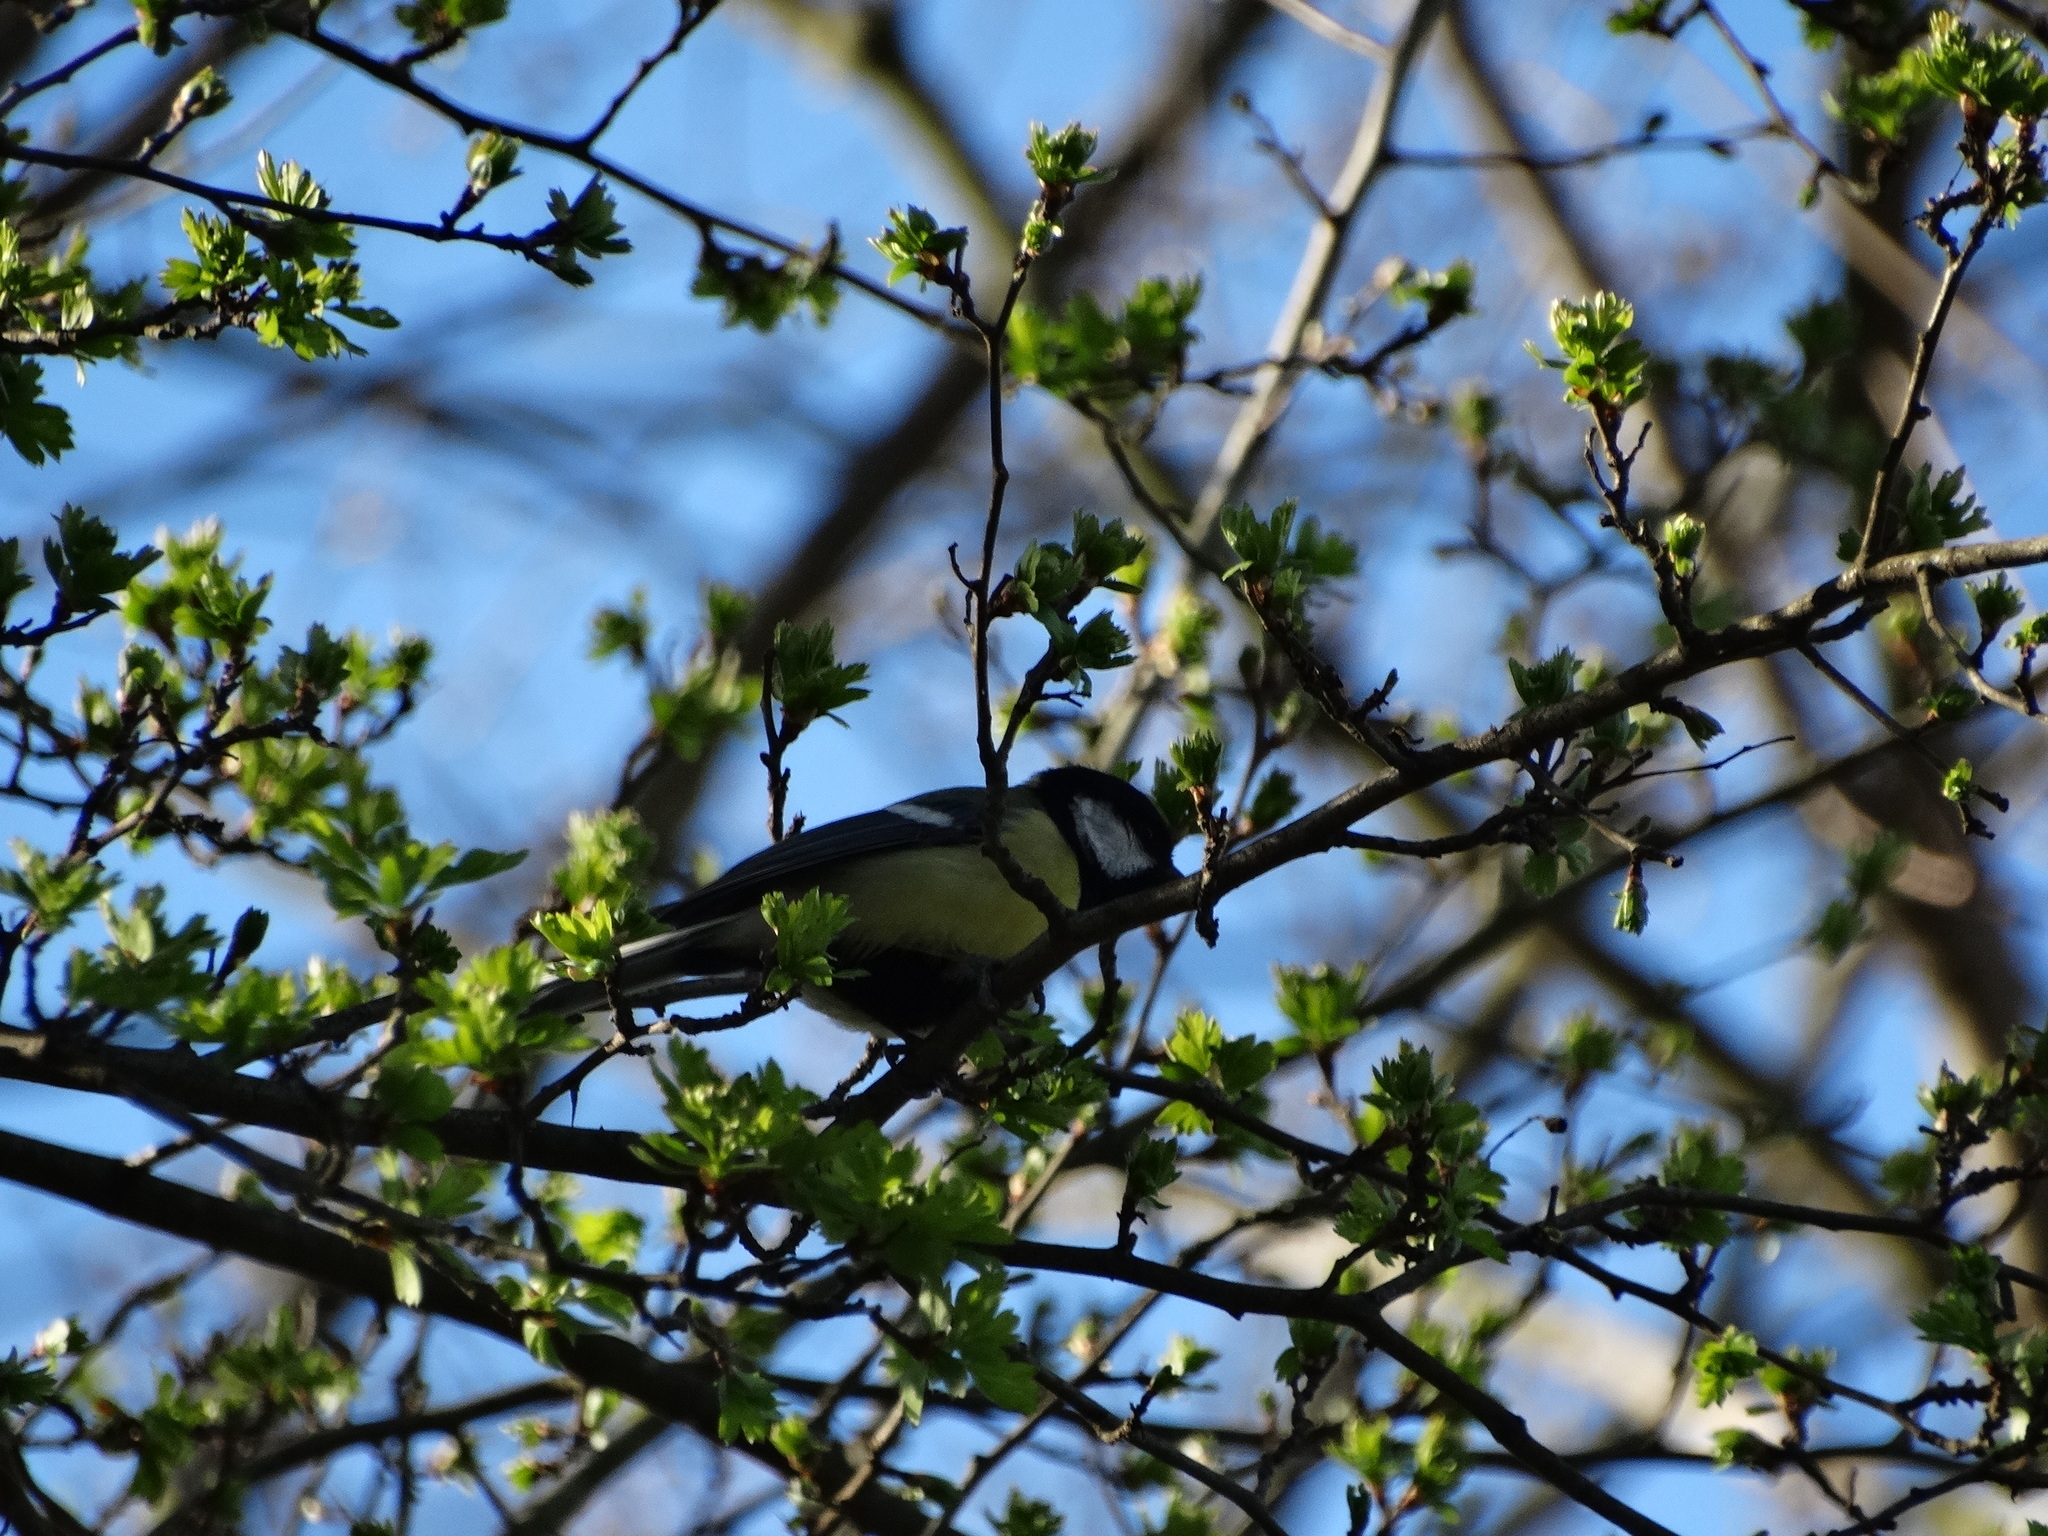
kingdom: Animalia
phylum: Chordata
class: Aves
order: Passeriformes
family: Paridae
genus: Parus
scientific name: Parus major
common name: Great tit
